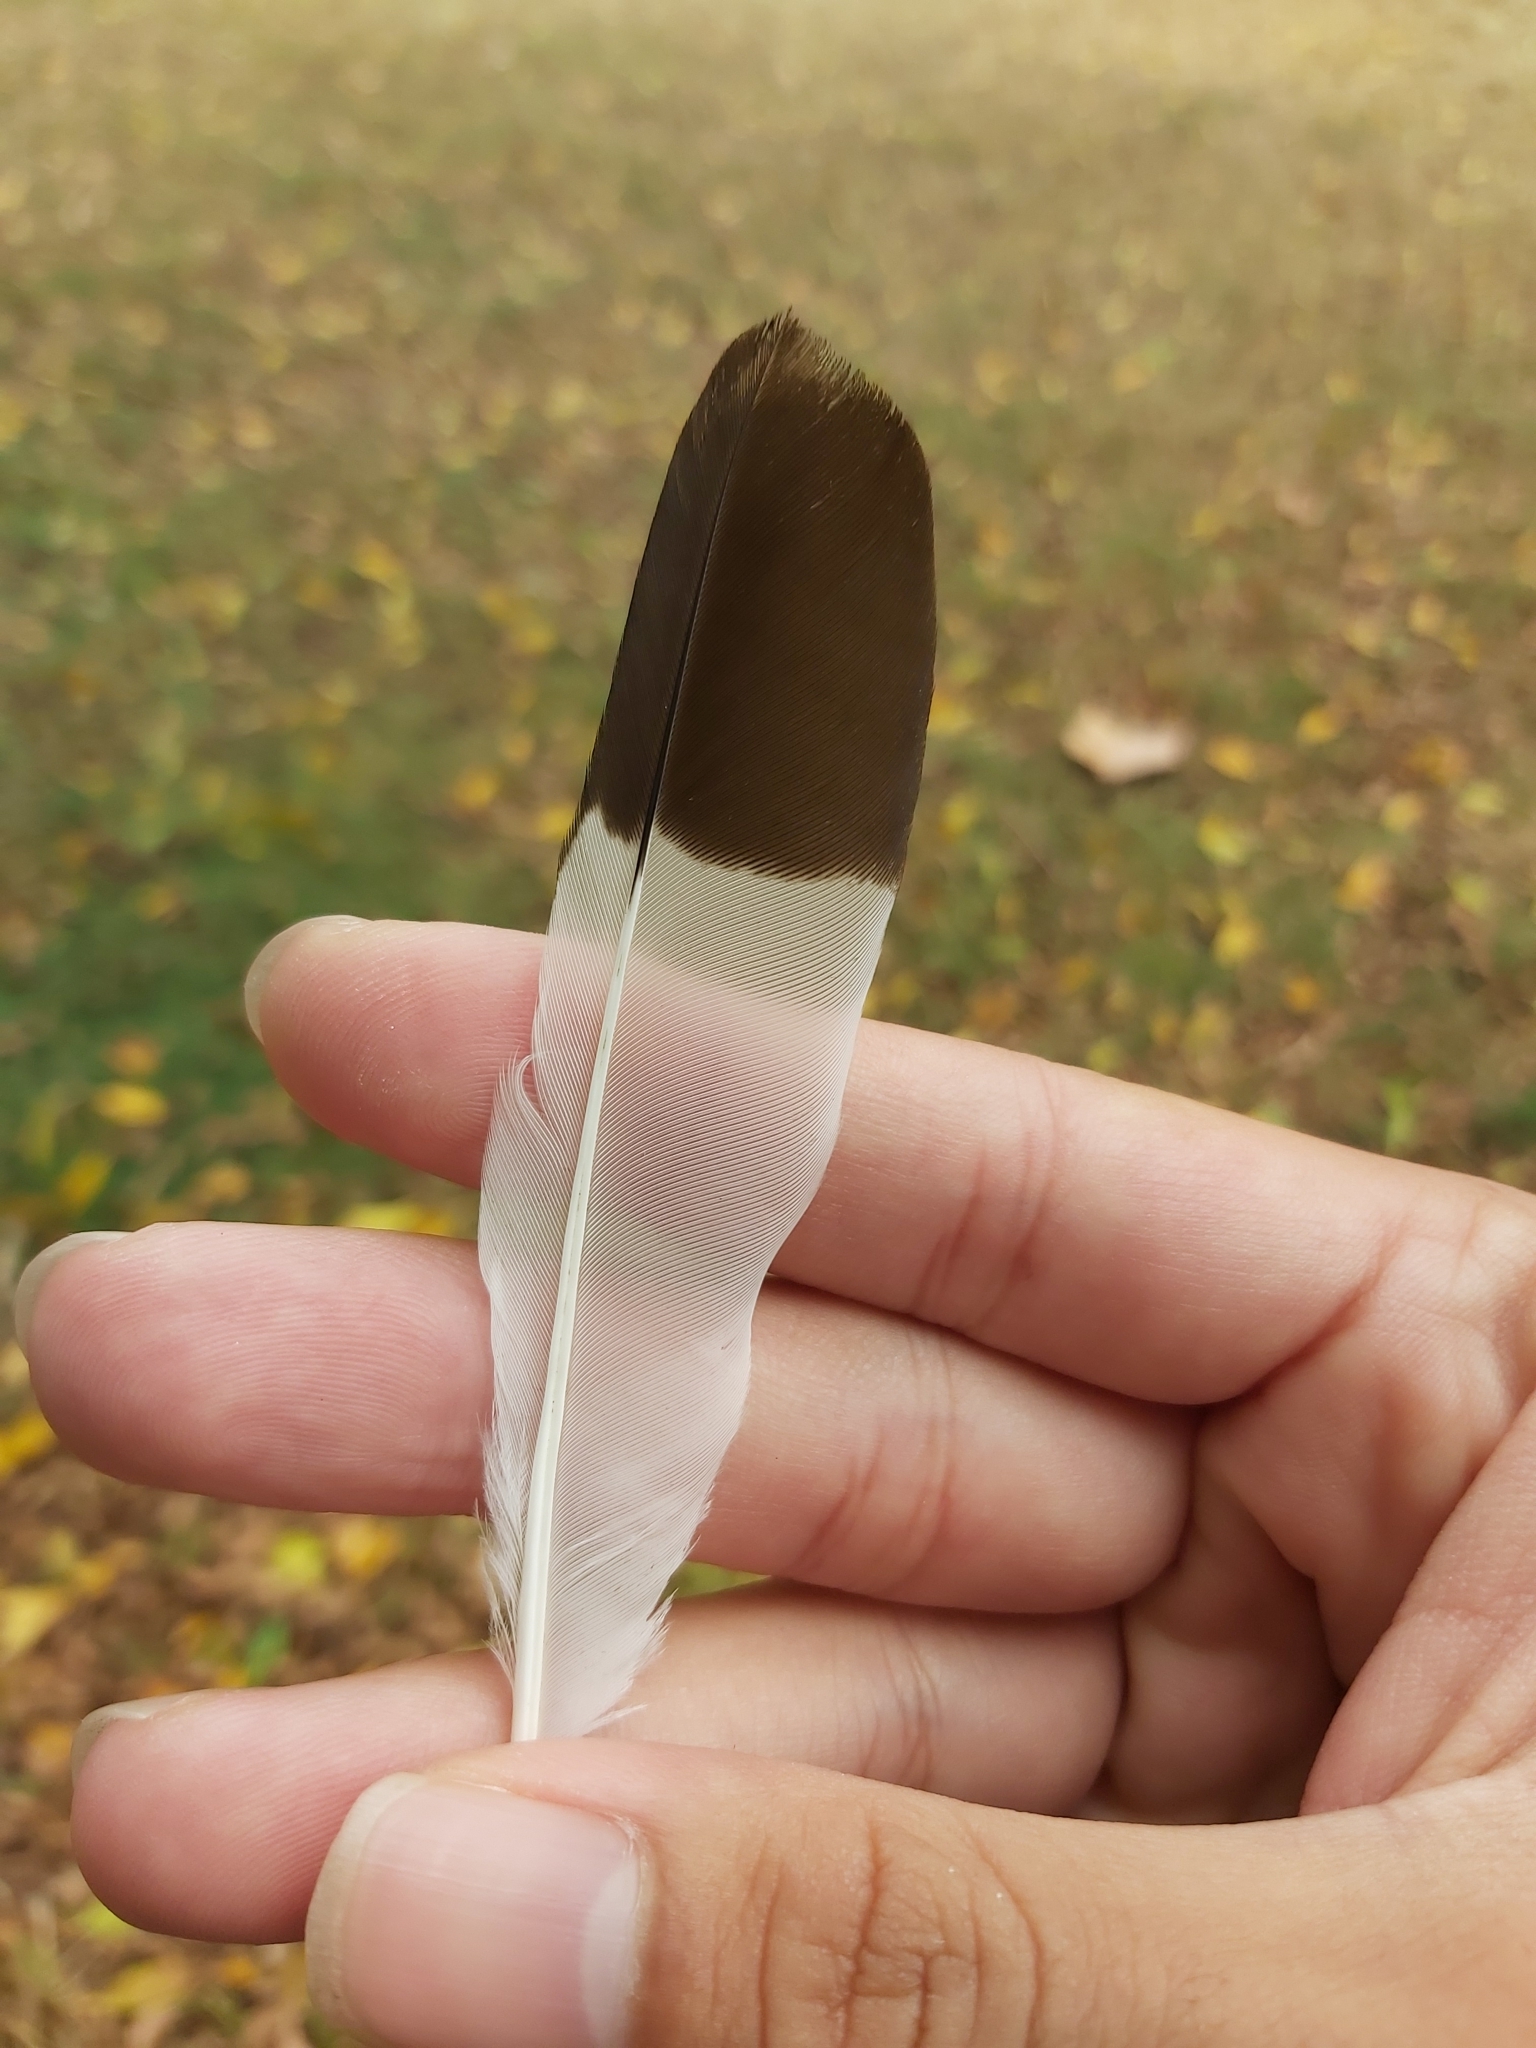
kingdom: Animalia
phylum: Chordata
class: Aves
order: Passeriformes
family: Sturnidae
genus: Acridotheres
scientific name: Acridotheres tristis
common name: Common myna
